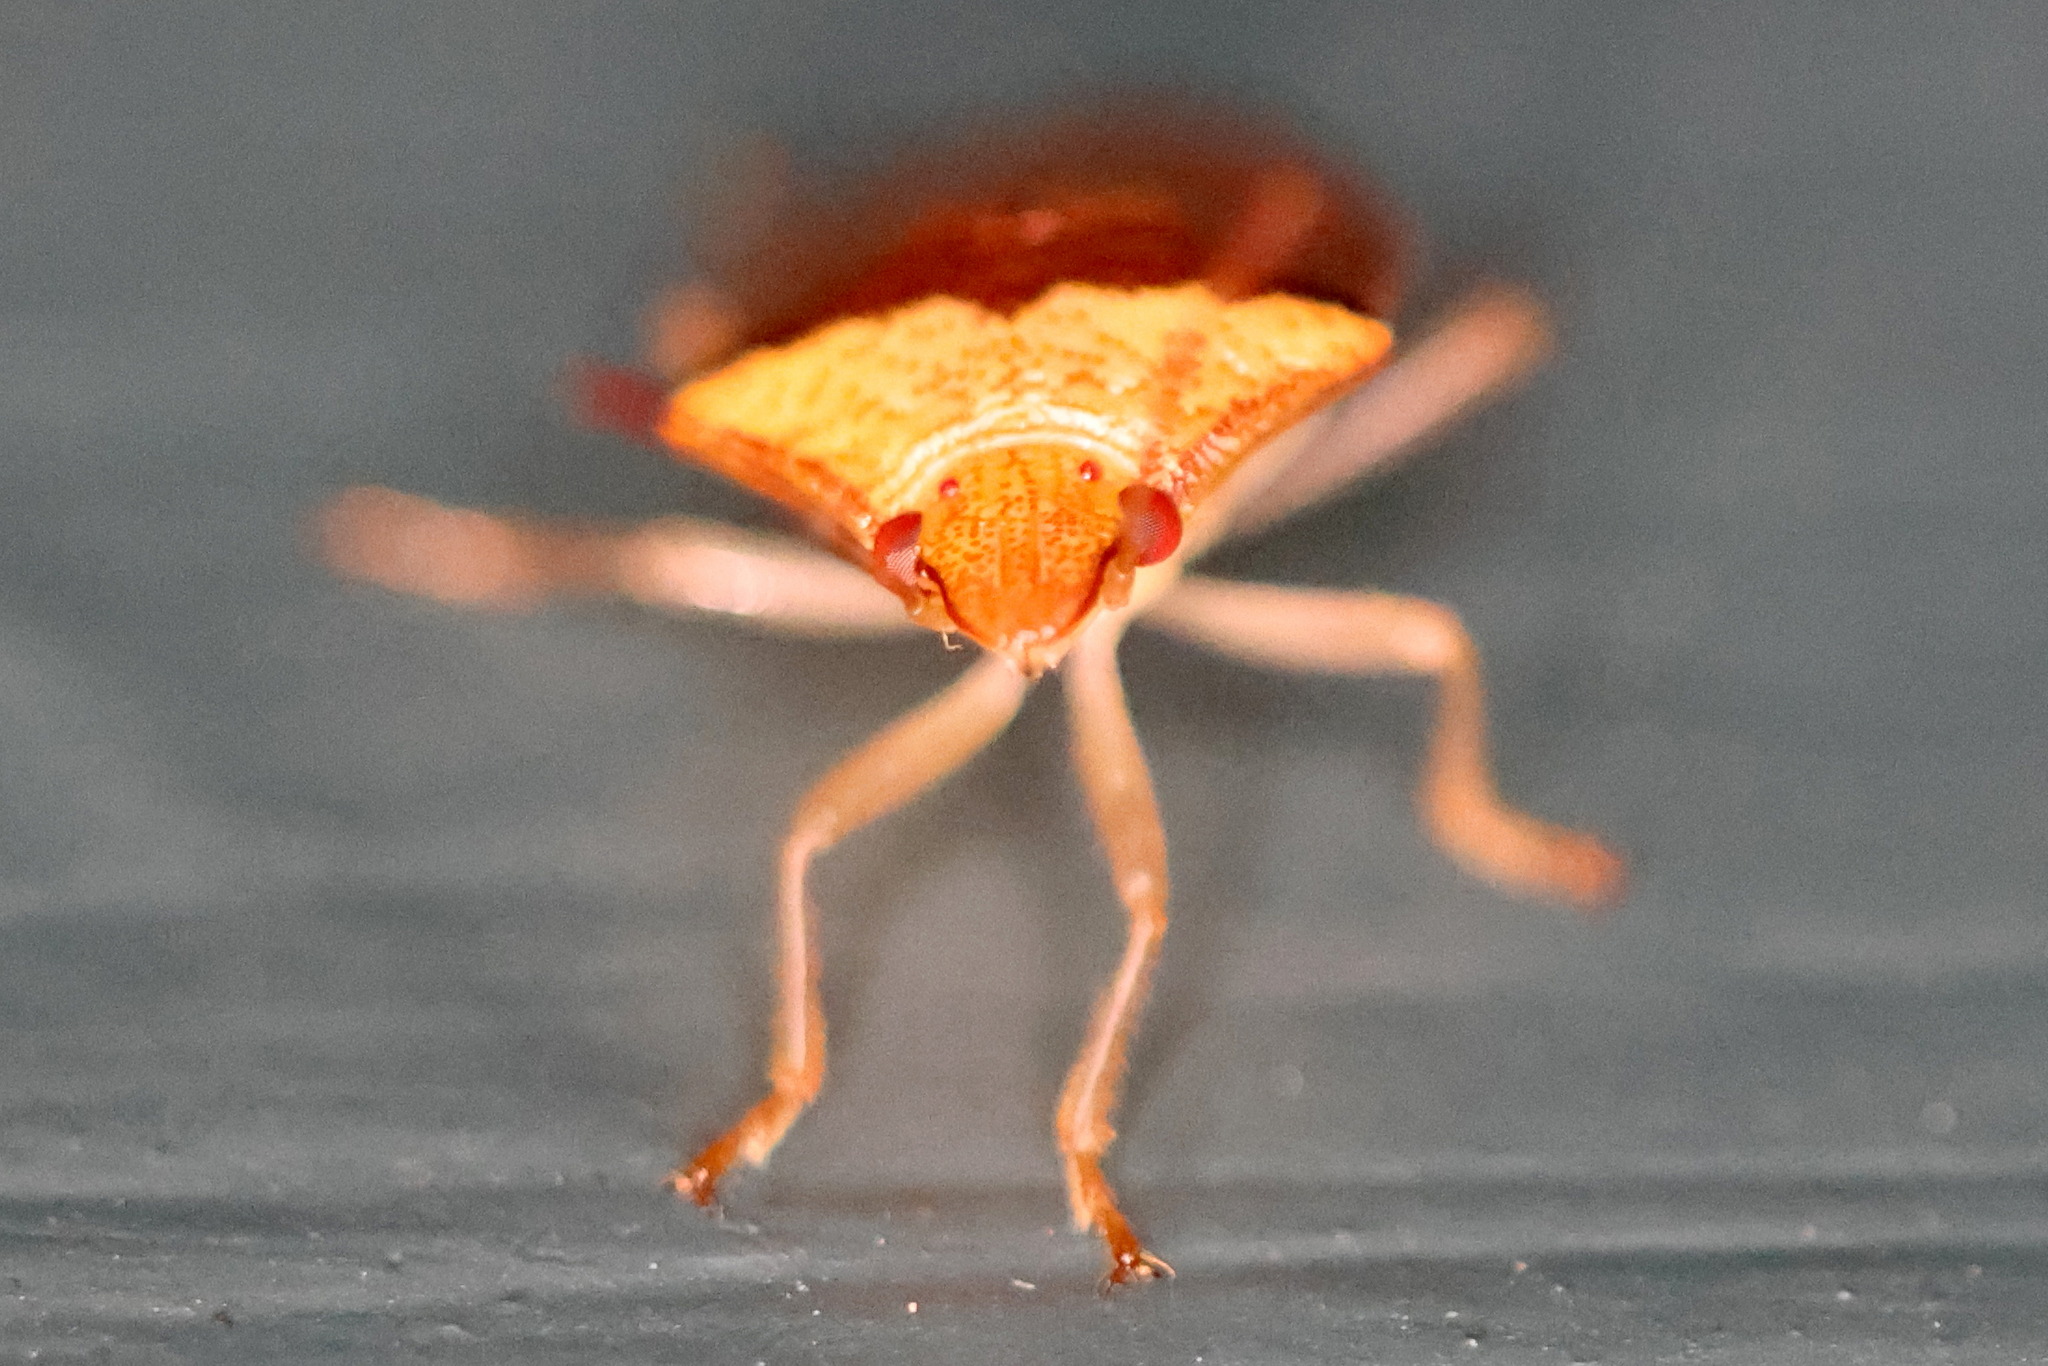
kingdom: Animalia
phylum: Arthropoda
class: Insecta
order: Hemiptera
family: Pentatomidae
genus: Banasa
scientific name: Banasa calva
